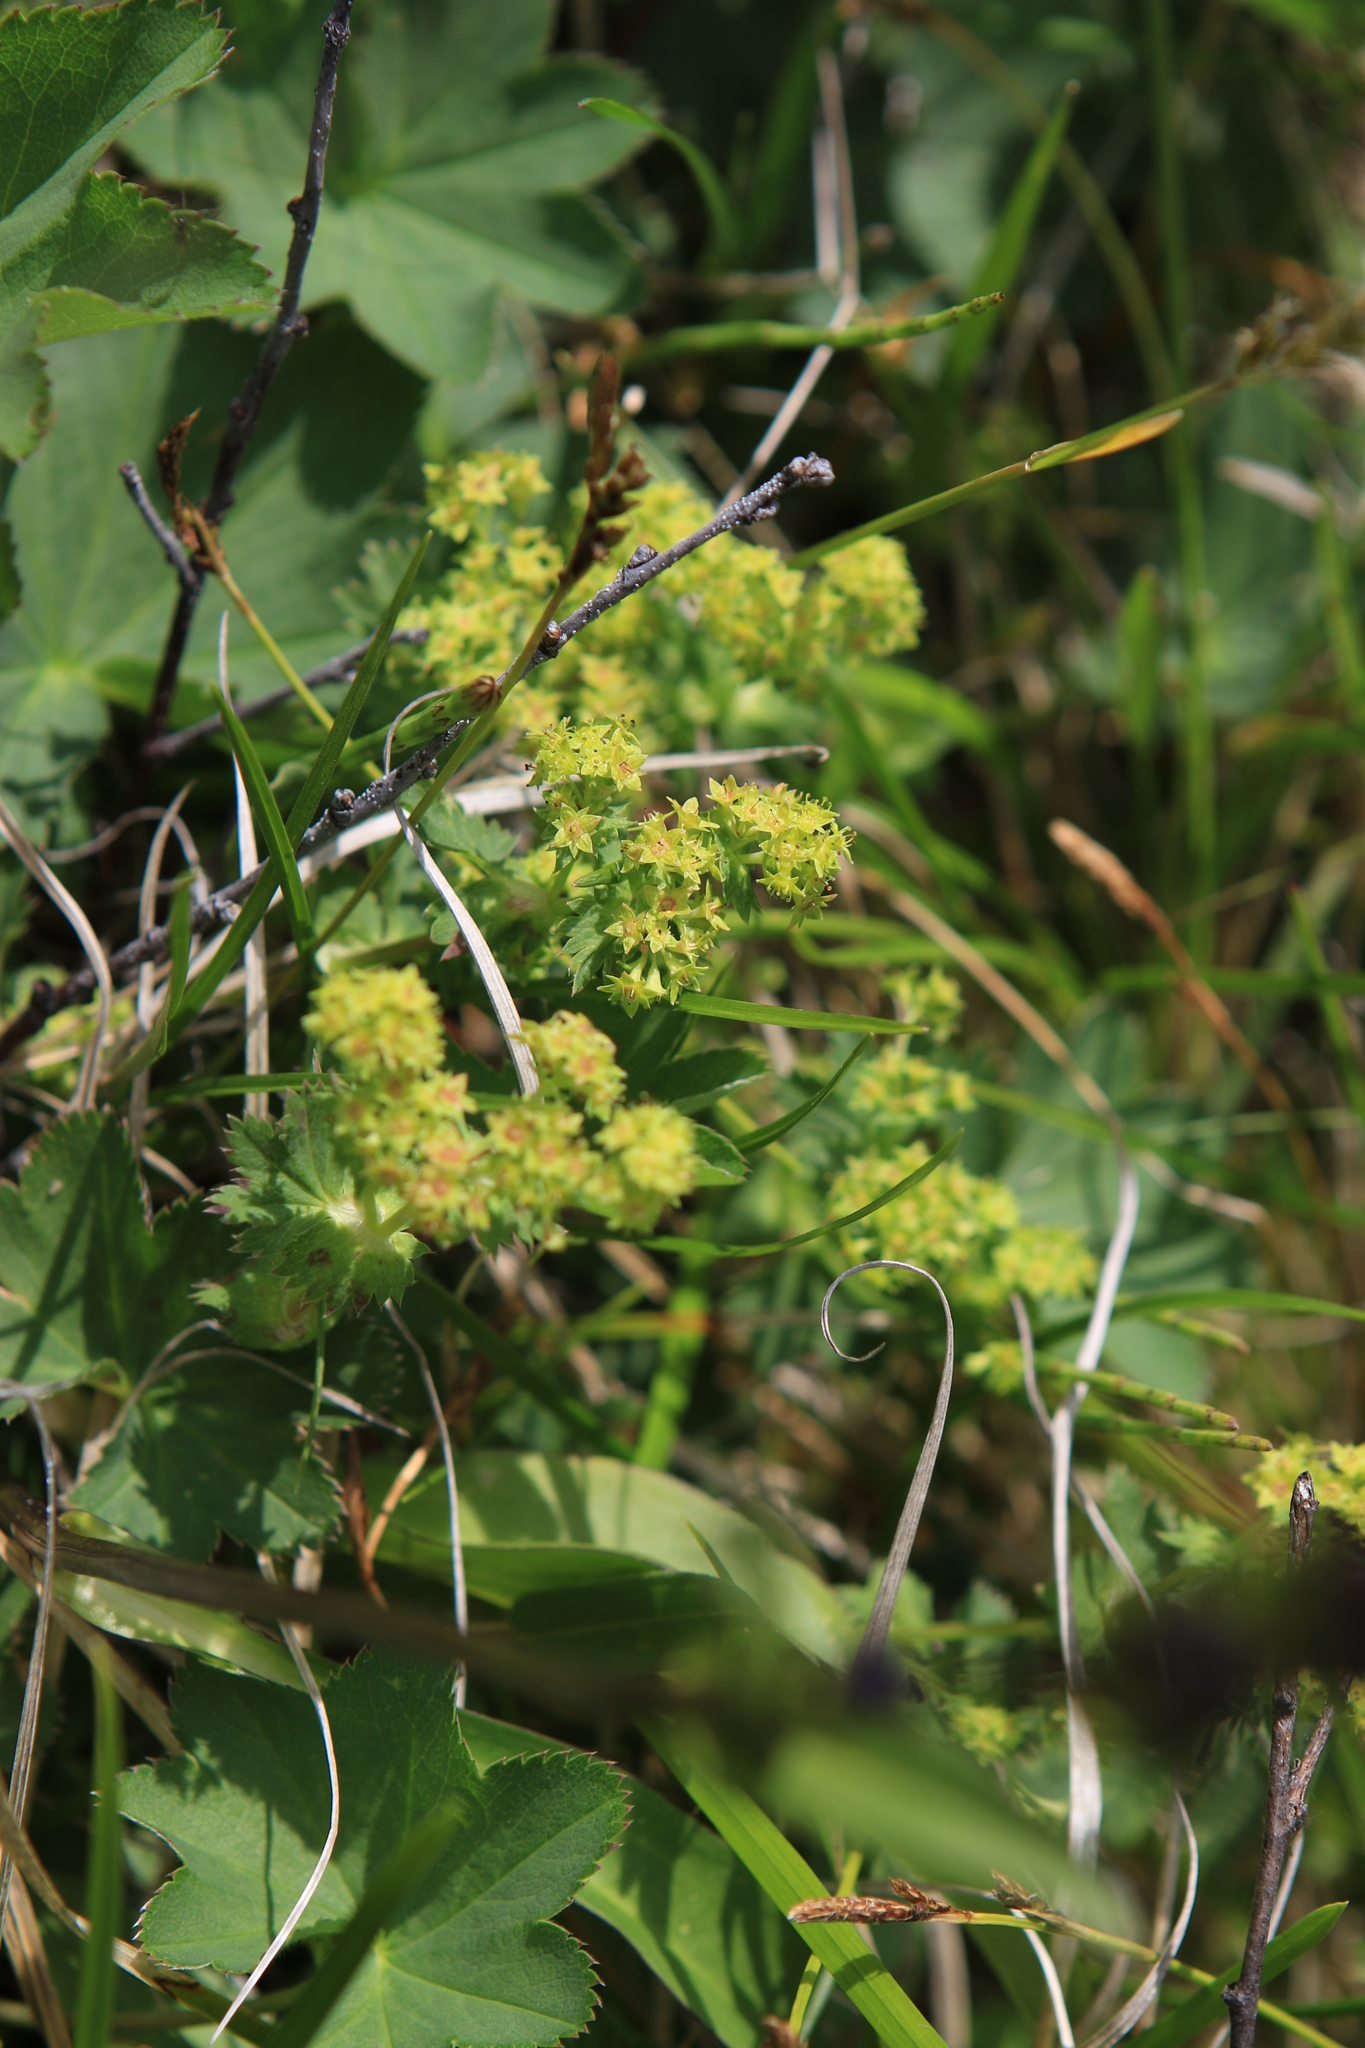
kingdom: Plantae
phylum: Tracheophyta
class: Magnoliopsida
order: Rosales
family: Rosaceae
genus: Alchemilla
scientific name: Alchemilla
